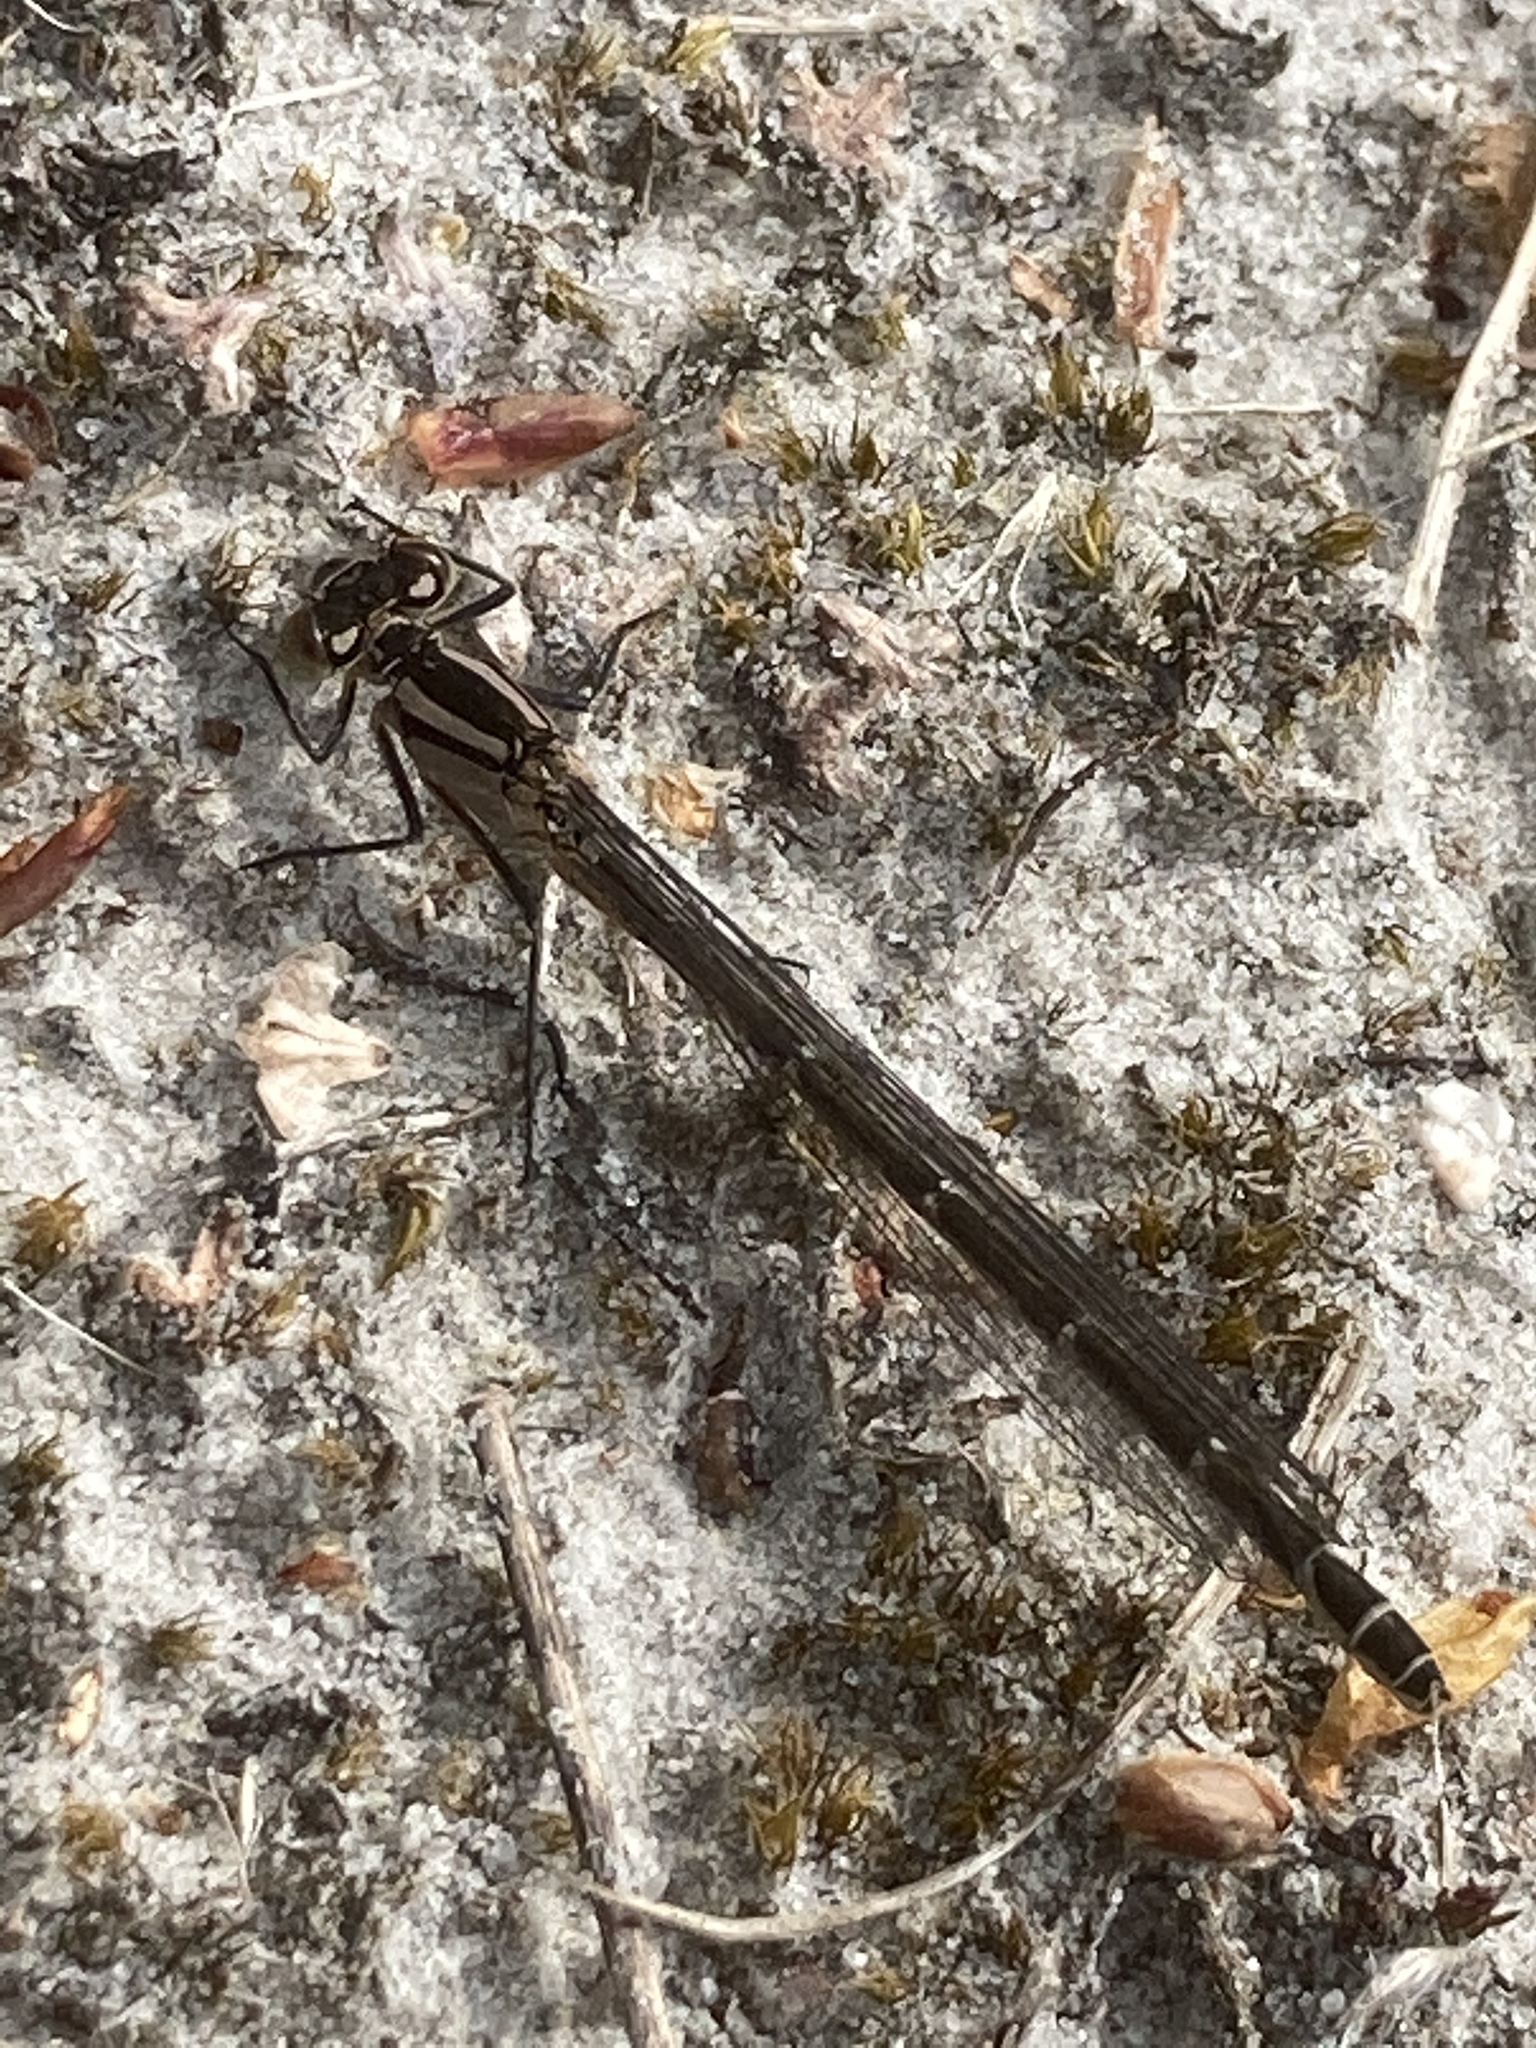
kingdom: Animalia
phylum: Arthropoda
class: Insecta
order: Odonata
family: Coenagrionidae
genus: Enallagma
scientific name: Enallagma cyathigerum
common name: Common blue damselfly
